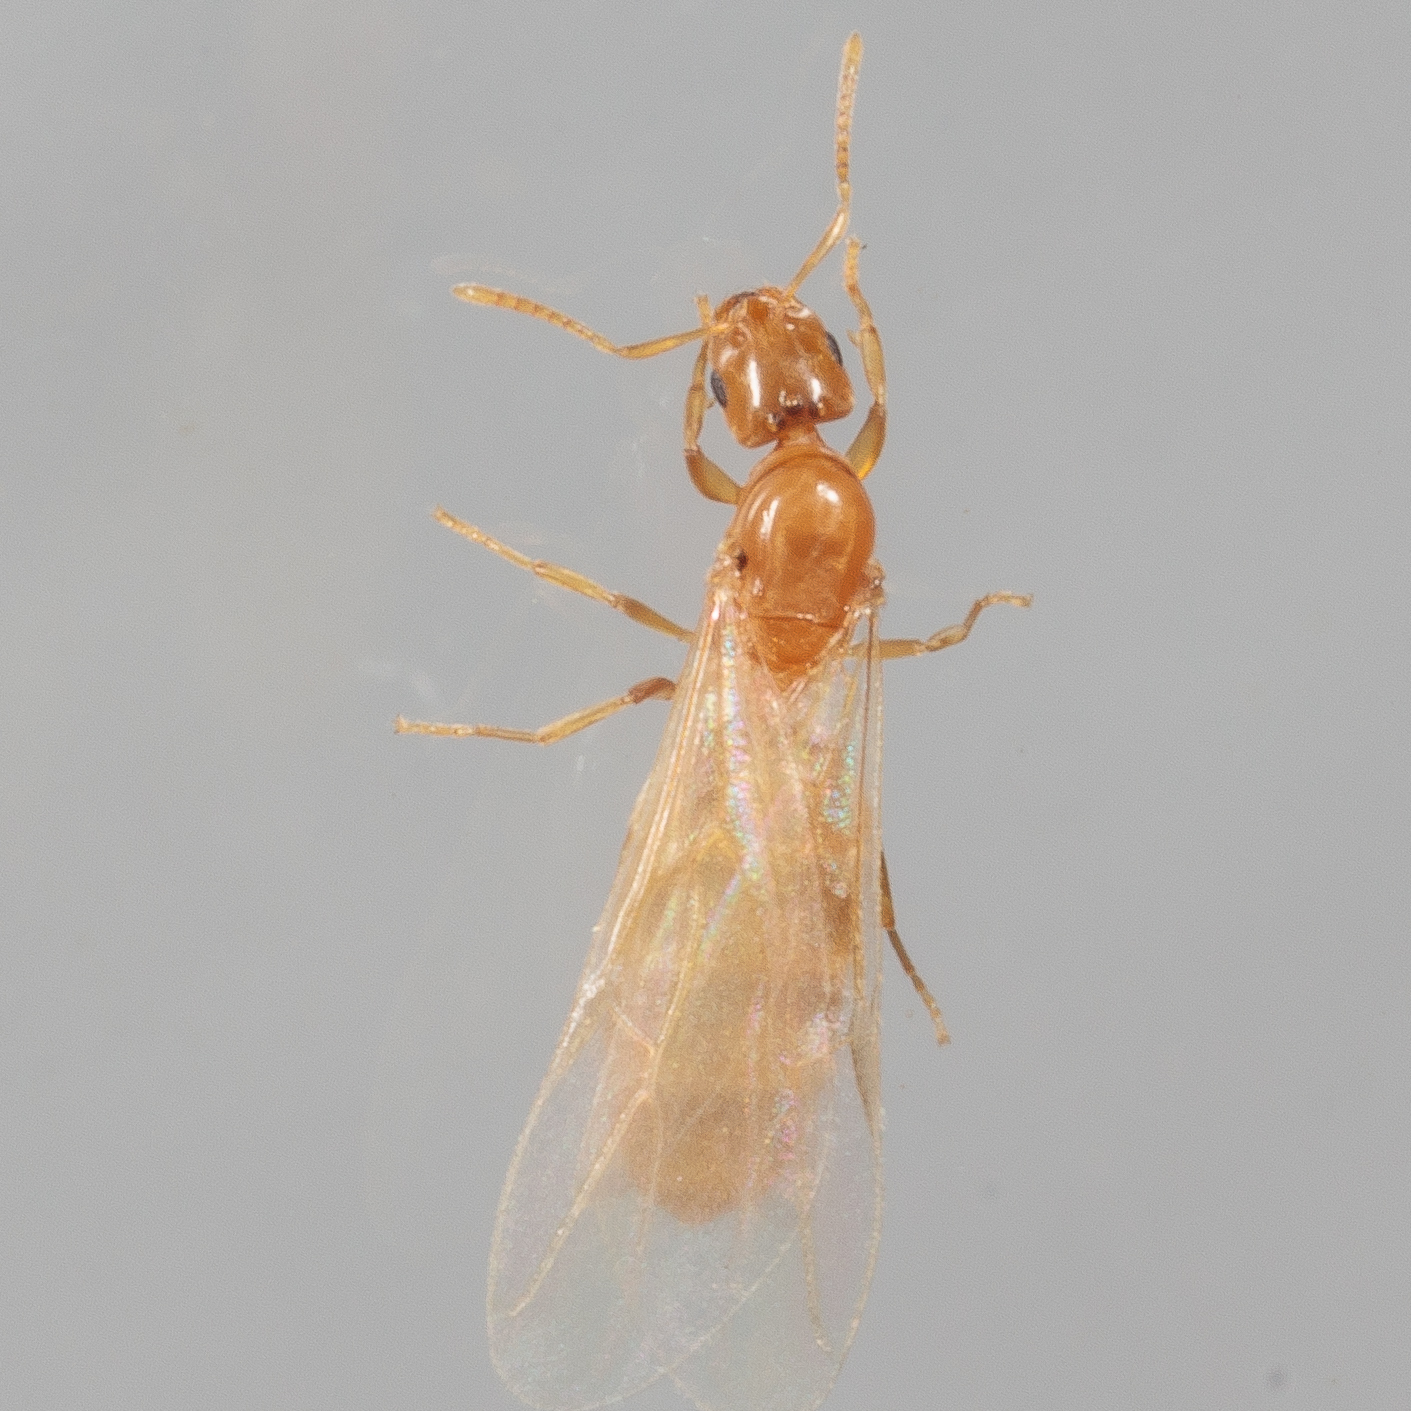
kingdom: Animalia
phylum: Arthropoda
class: Insecta
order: Hymenoptera
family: Formicidae
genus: Brachymyrmex
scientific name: Brachymyrmex depilis
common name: Hairless rover ant
